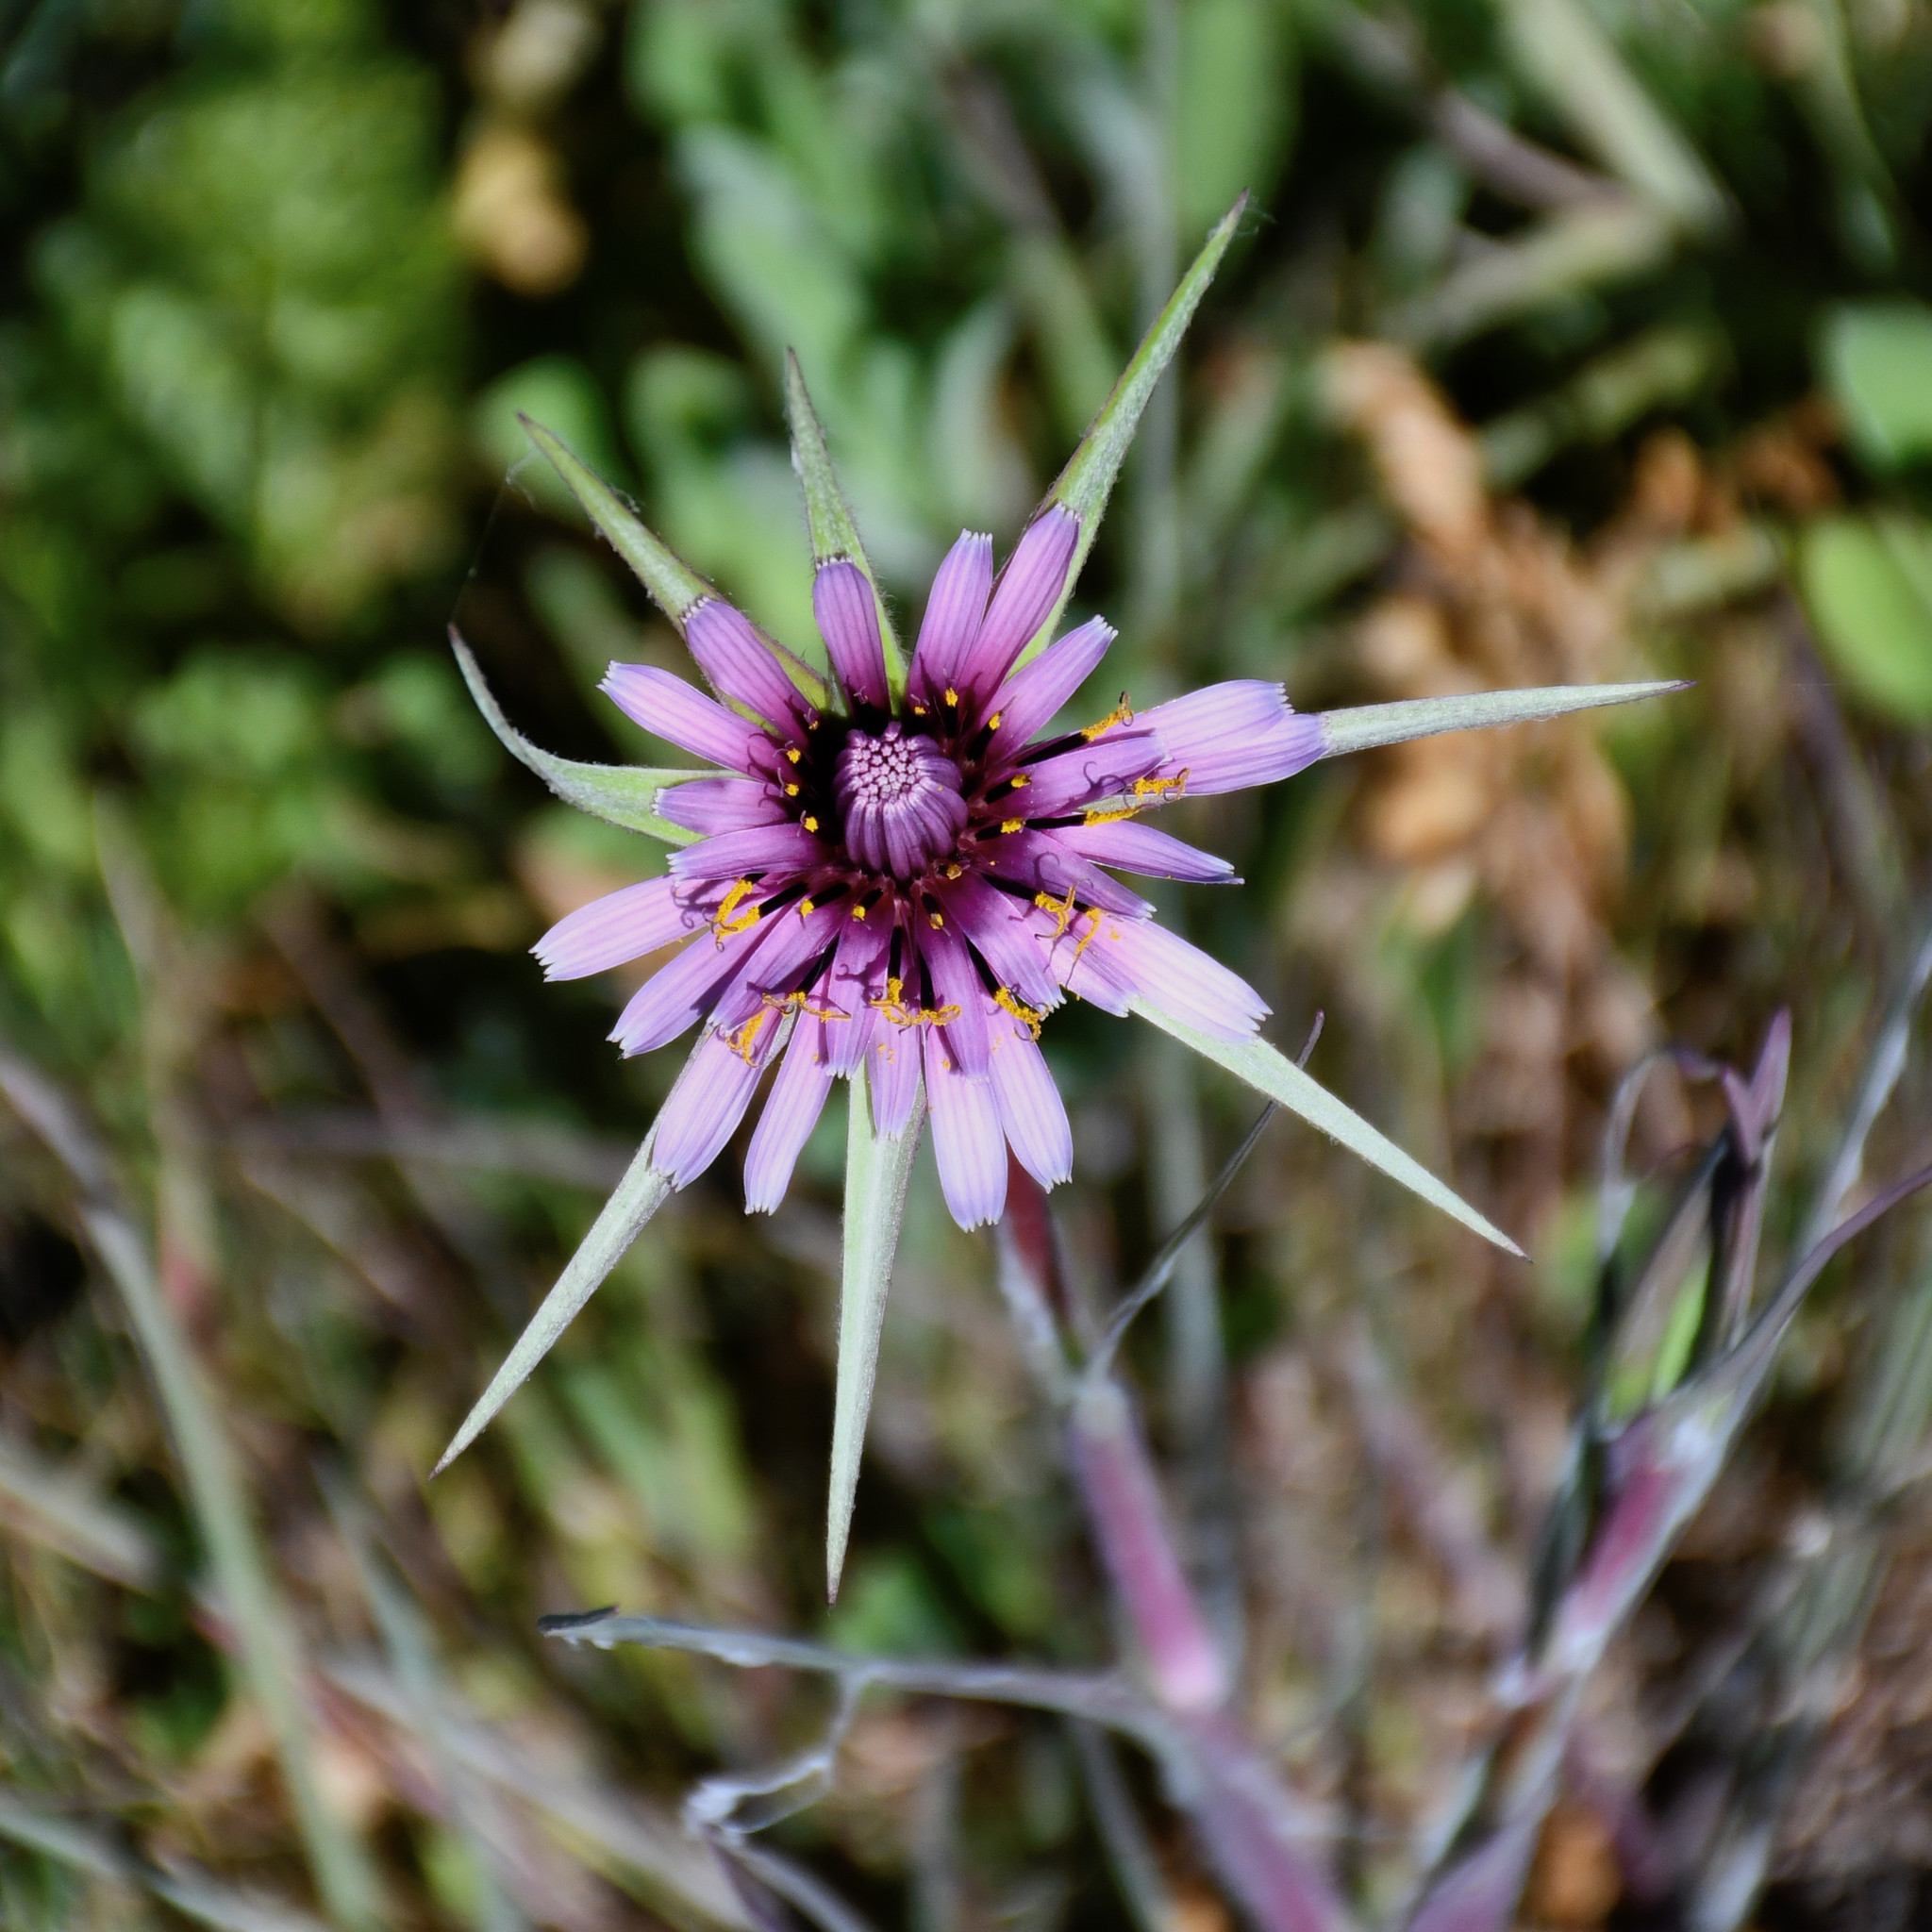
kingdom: Plantae
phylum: Tracheophyta
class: Magnoliopsida
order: Asterales
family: Asteraceae
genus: Tragopogon
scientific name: Tragopogon porrifolius
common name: Salsify
